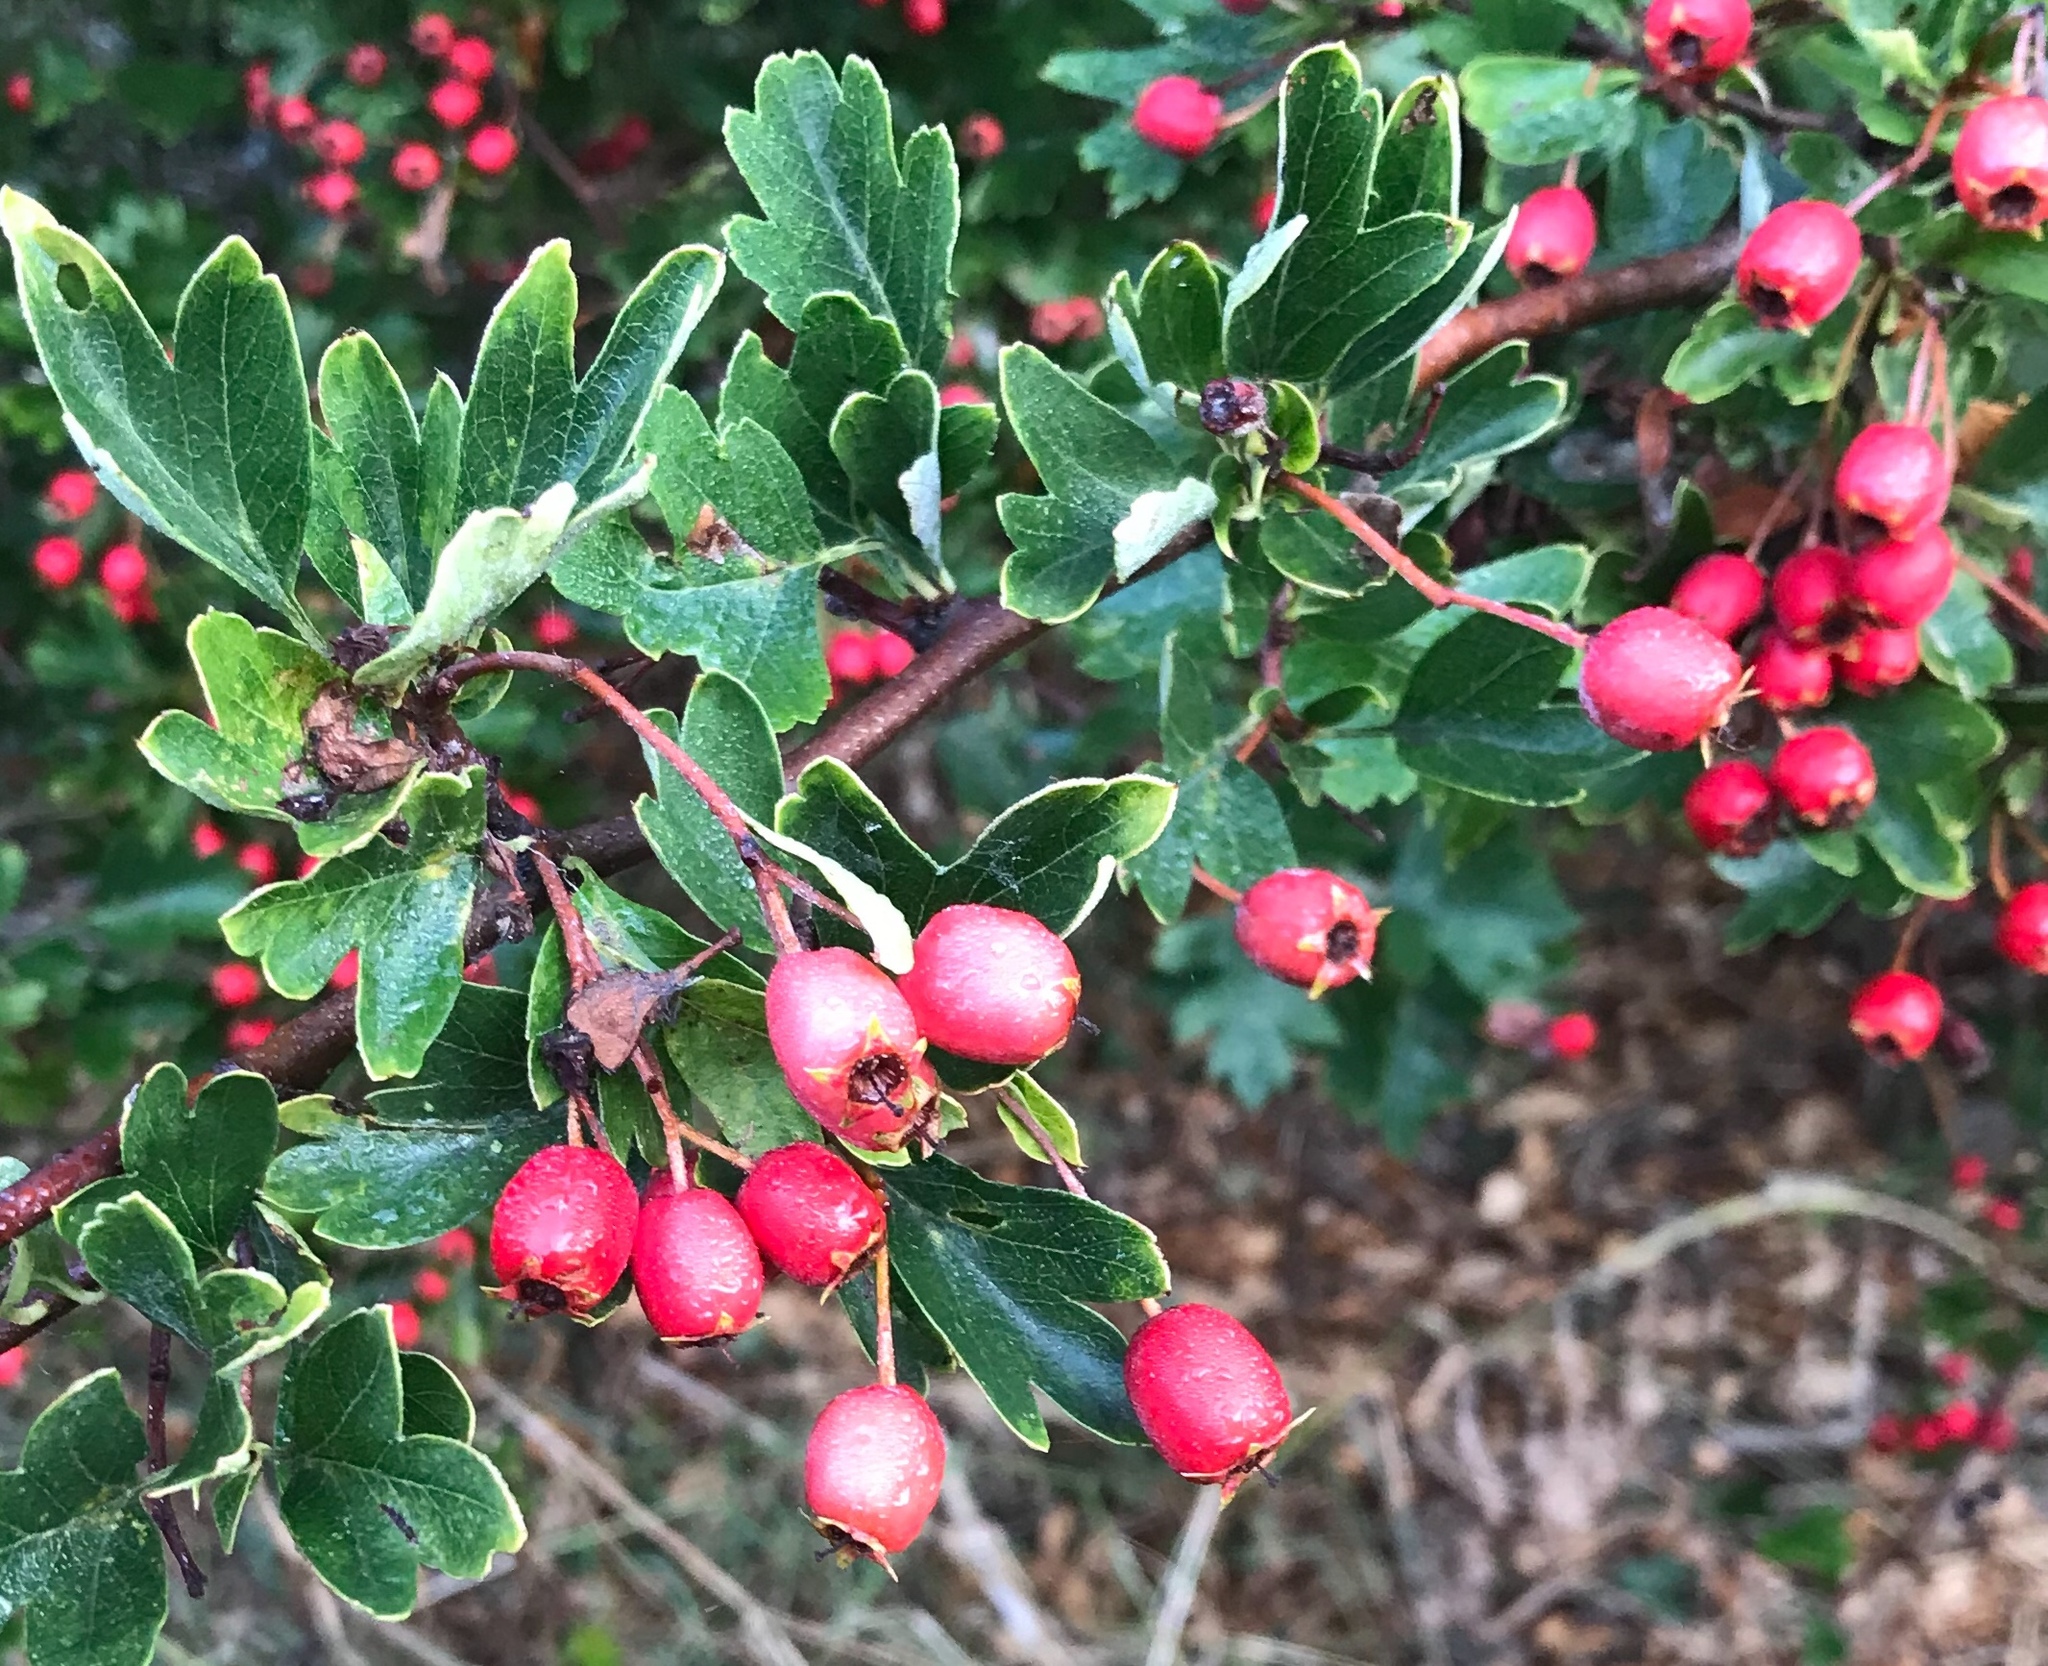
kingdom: Plantae
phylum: Tracheophyta
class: Magnoliopsida
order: Rosales
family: Rosaceae
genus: Crataegus
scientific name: Crataegus monogyna
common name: Hawthorn
